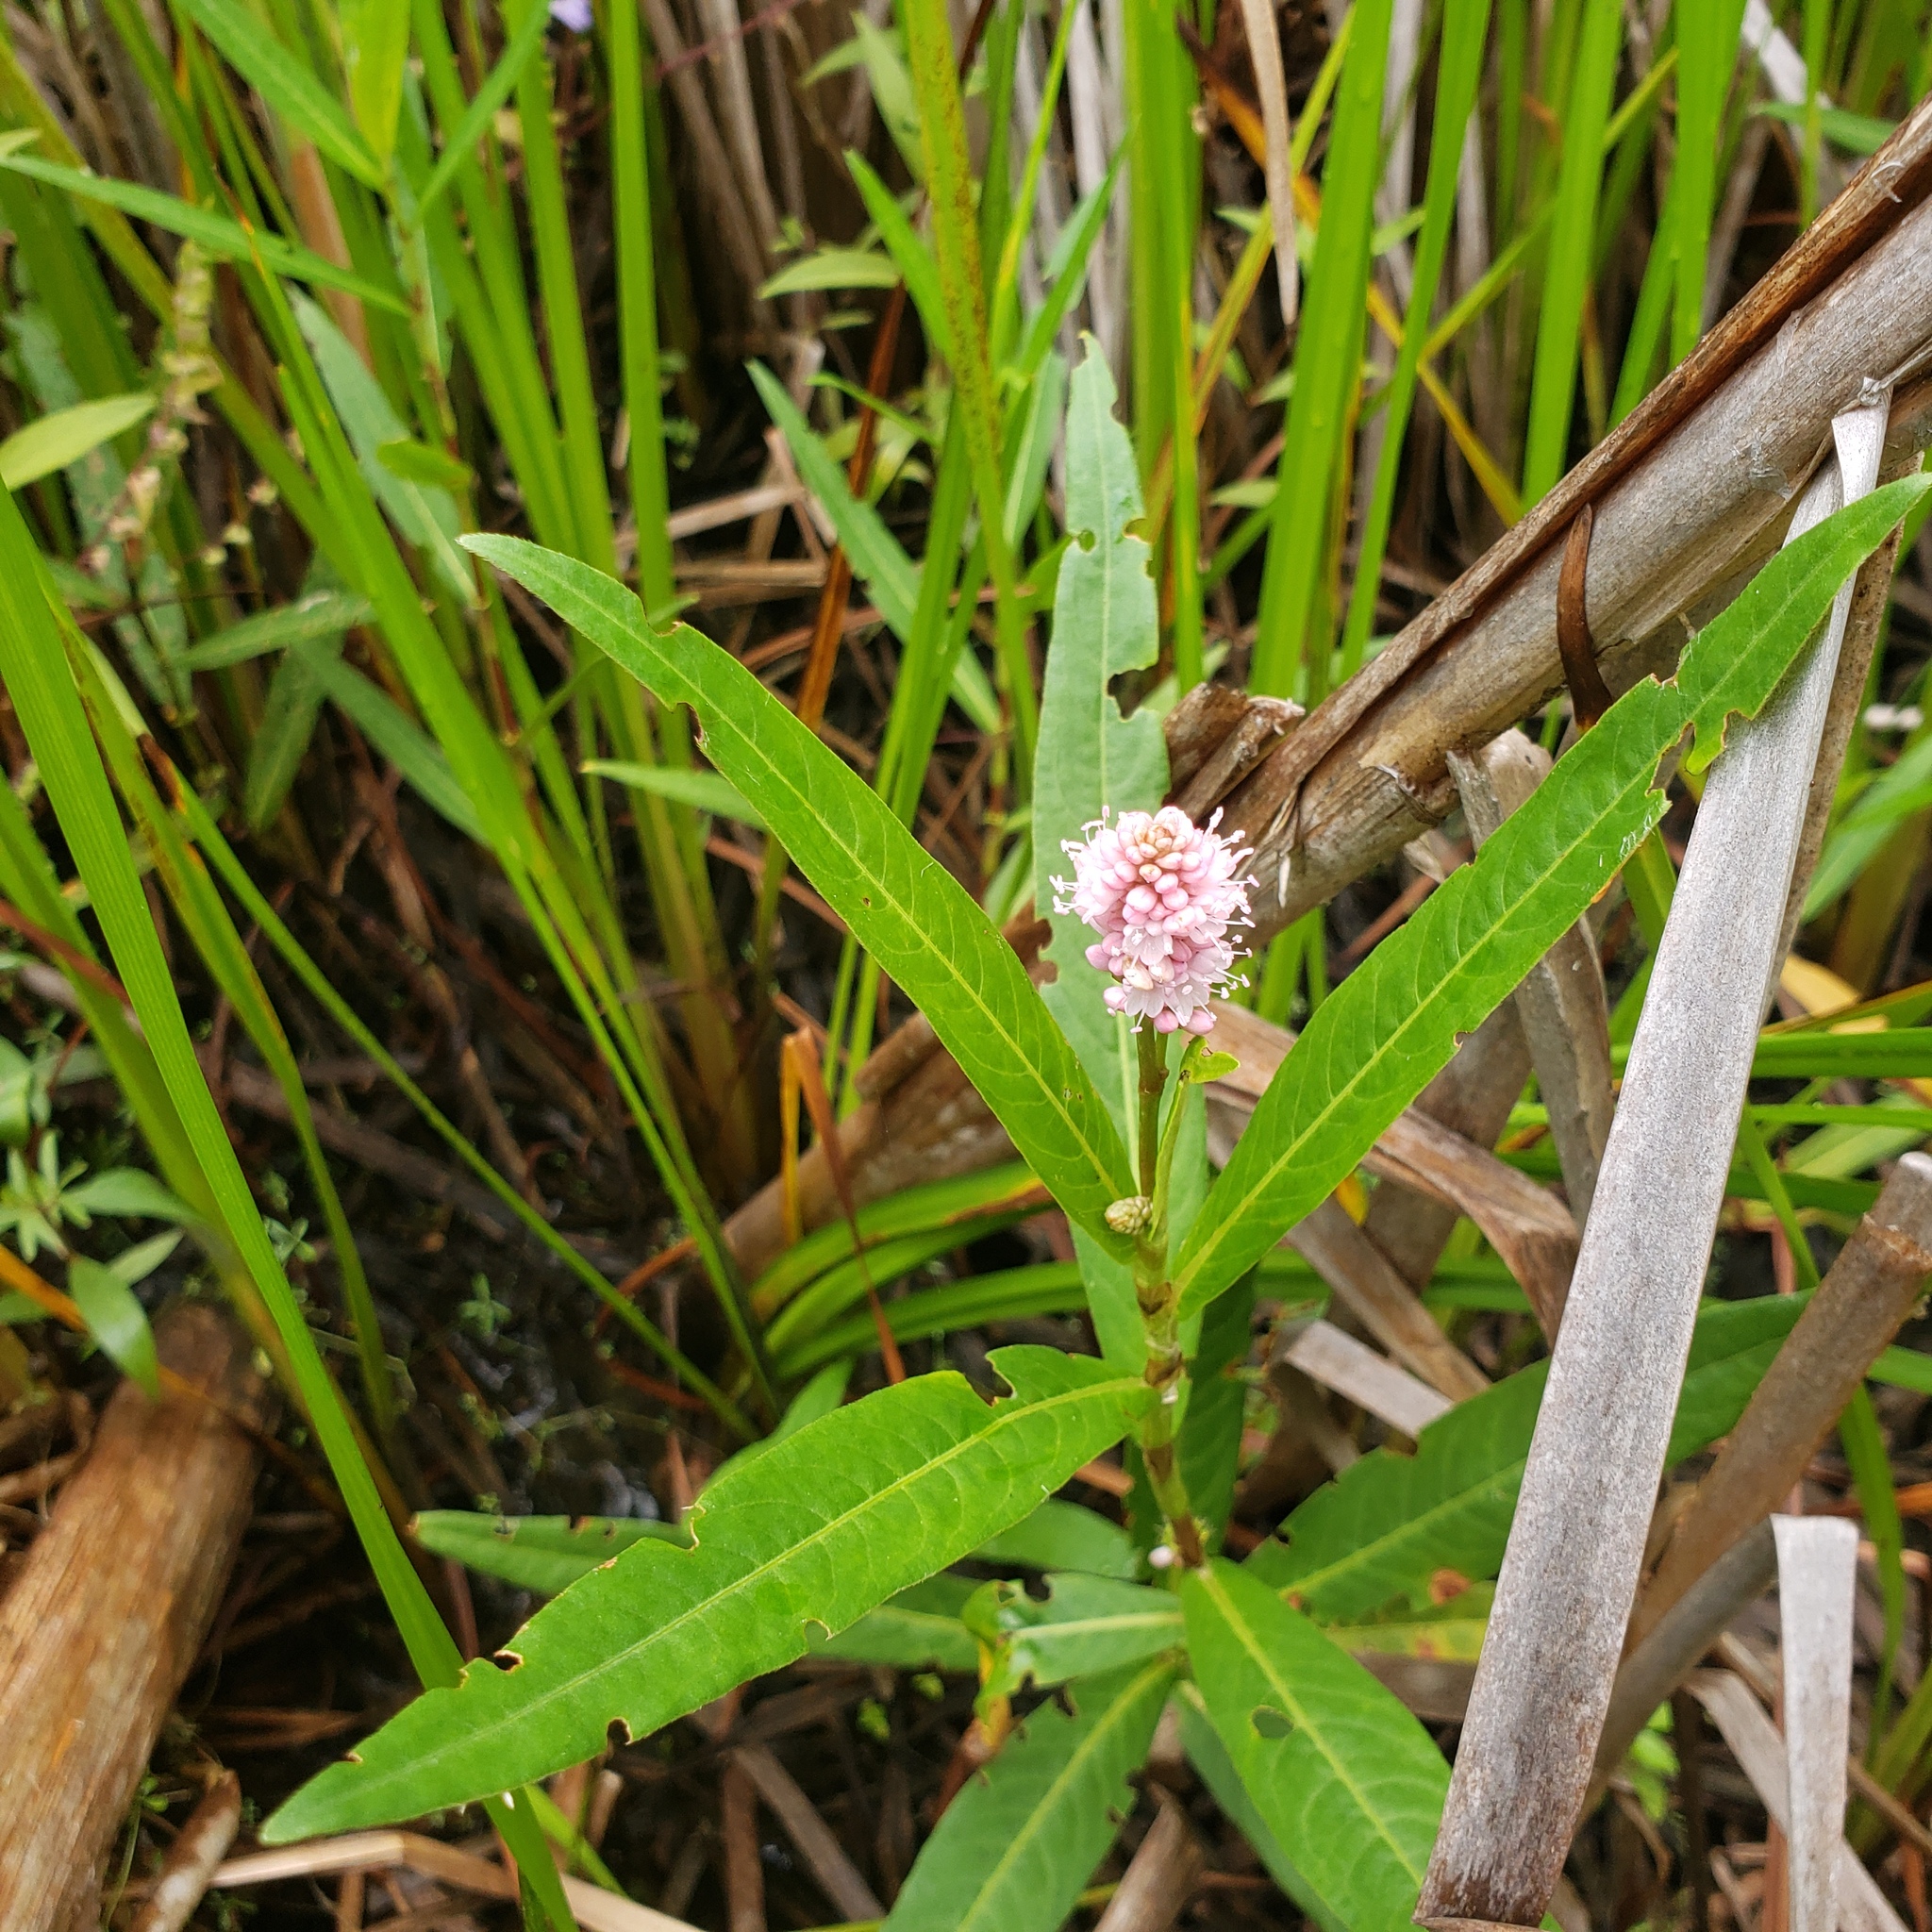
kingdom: Plantae
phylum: Tracheophyta
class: Magnoliopsida
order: Caryophyllales
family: Polygonaceae
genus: Persicaria
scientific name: Persicaria amphibia
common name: Amphibious bistort
